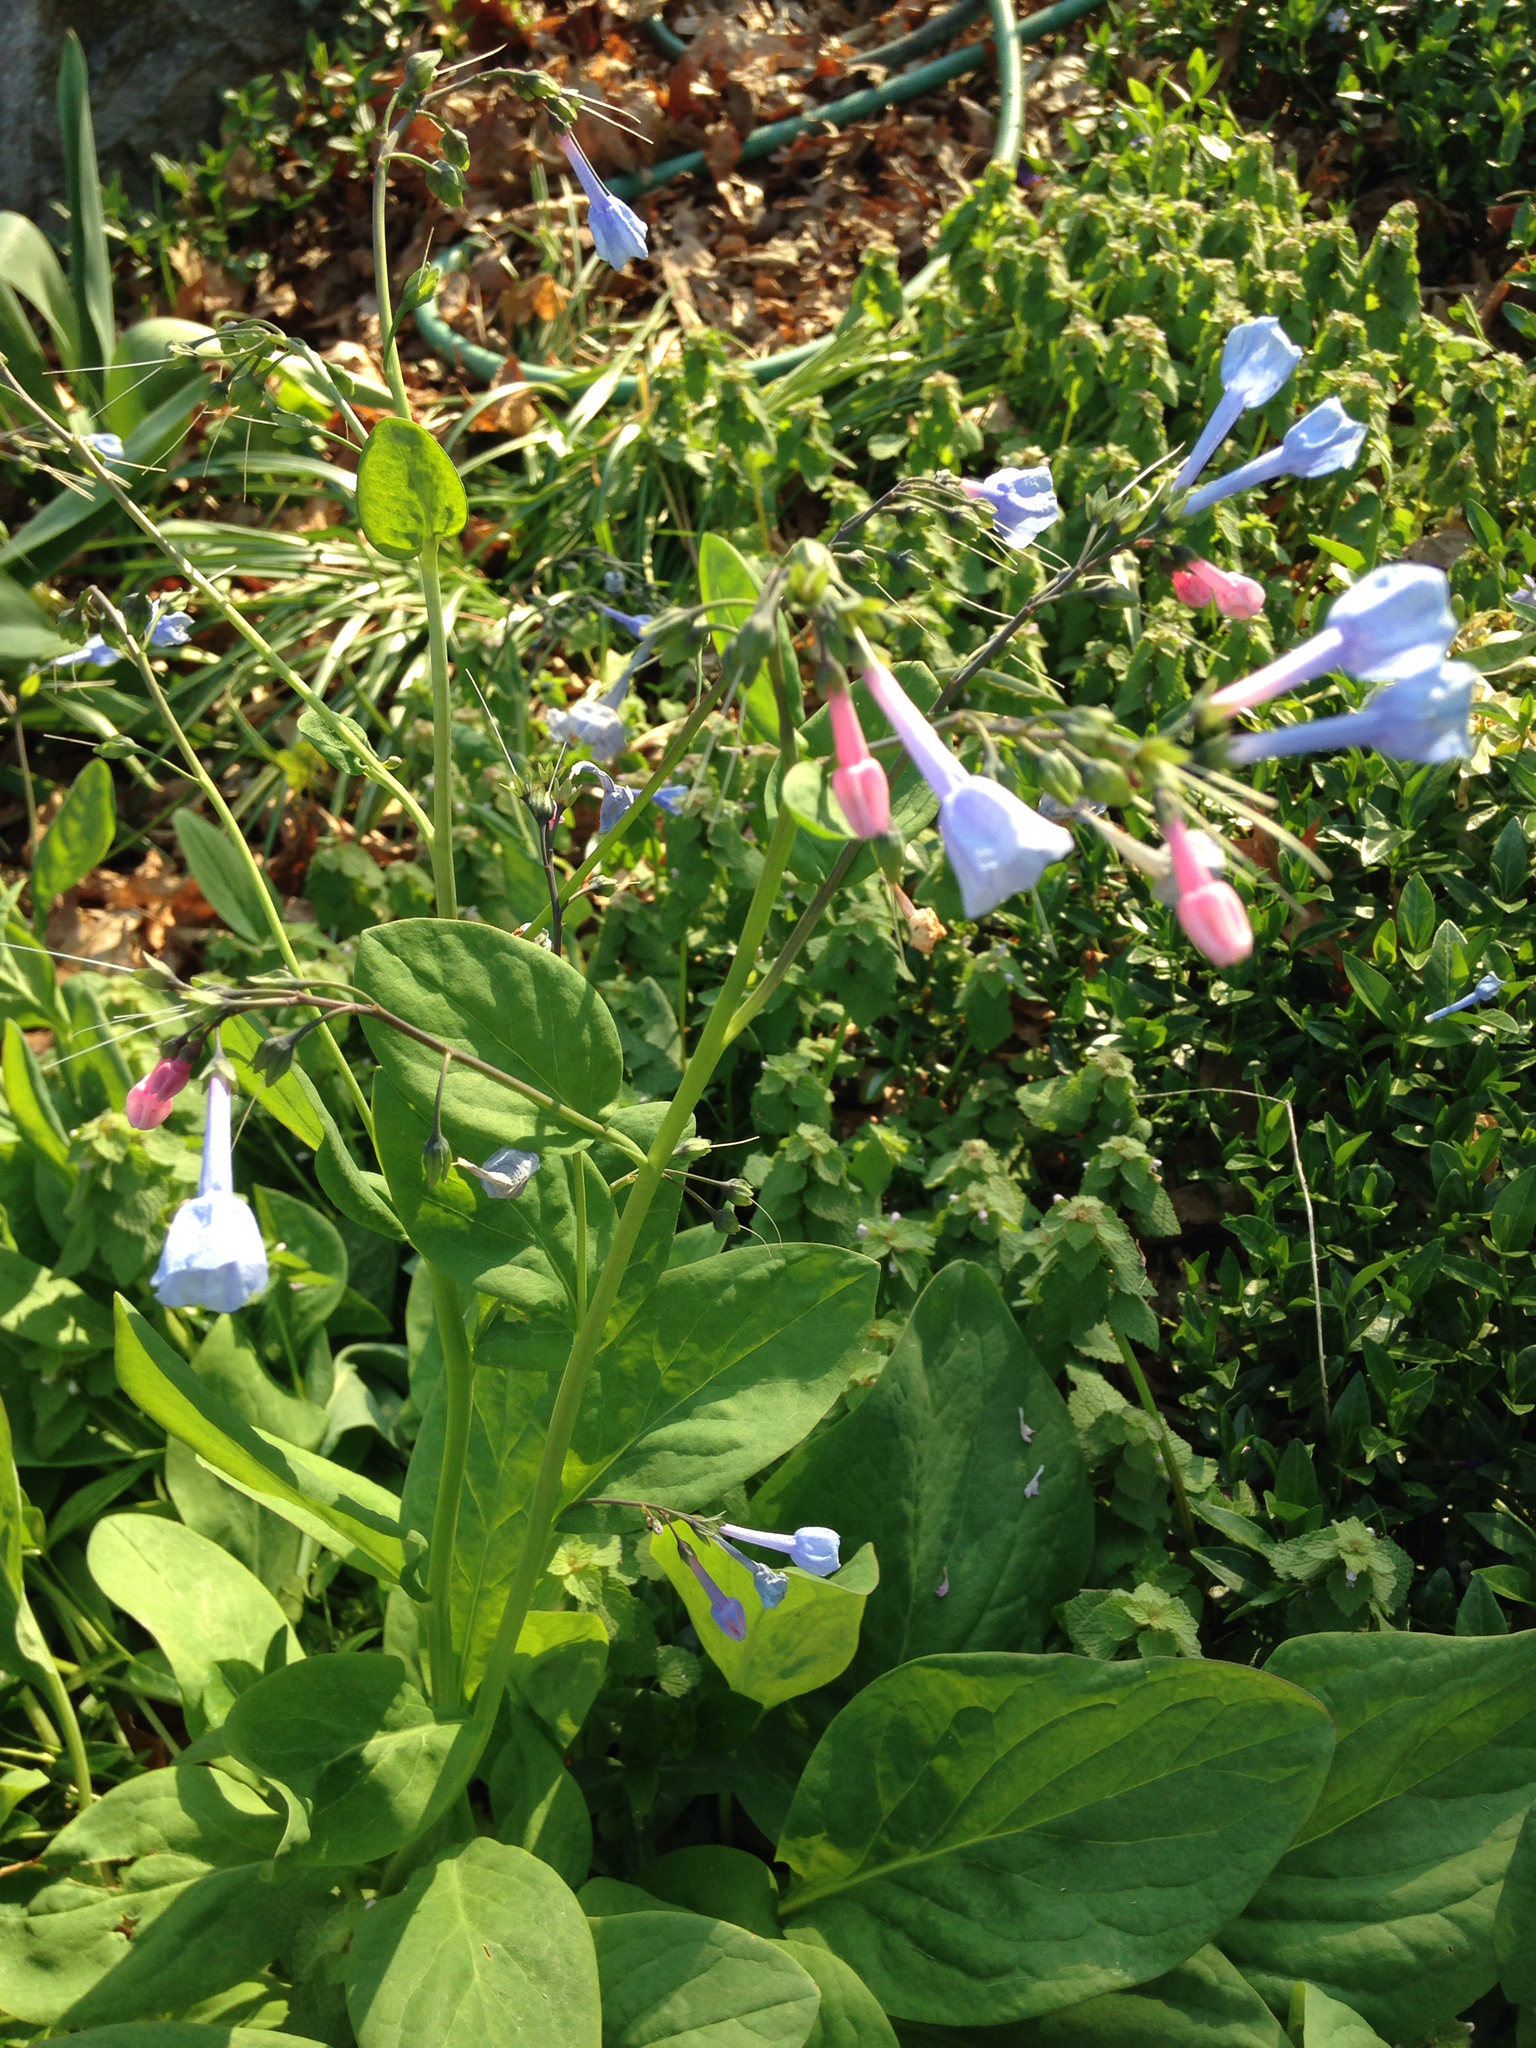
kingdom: Plantae
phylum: Tracheophyta
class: Magnoliopsida
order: Boraginales
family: Boraginaceae
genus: Mertensia
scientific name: Mertensia virginica
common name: Virginia bluebells
